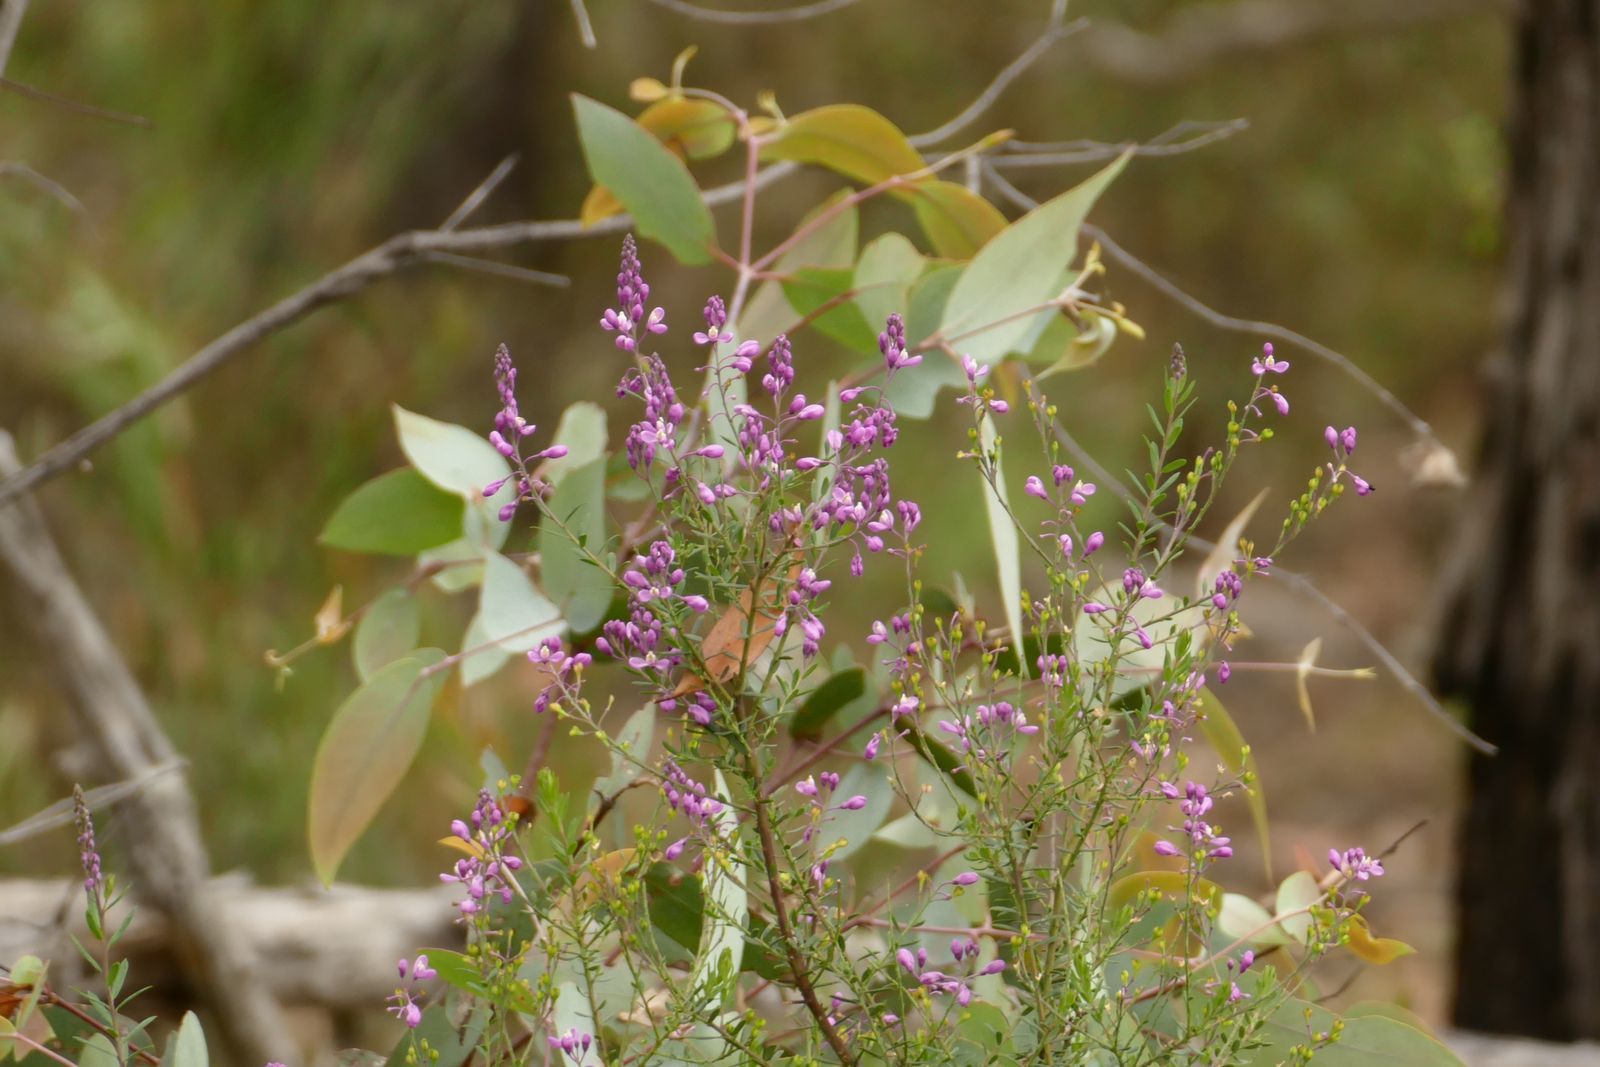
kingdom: Plantae
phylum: Tracheophyta
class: Magnoliopsida
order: Fabales
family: Polygalaceae
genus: Comesperma
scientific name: Comesperma ericinum
